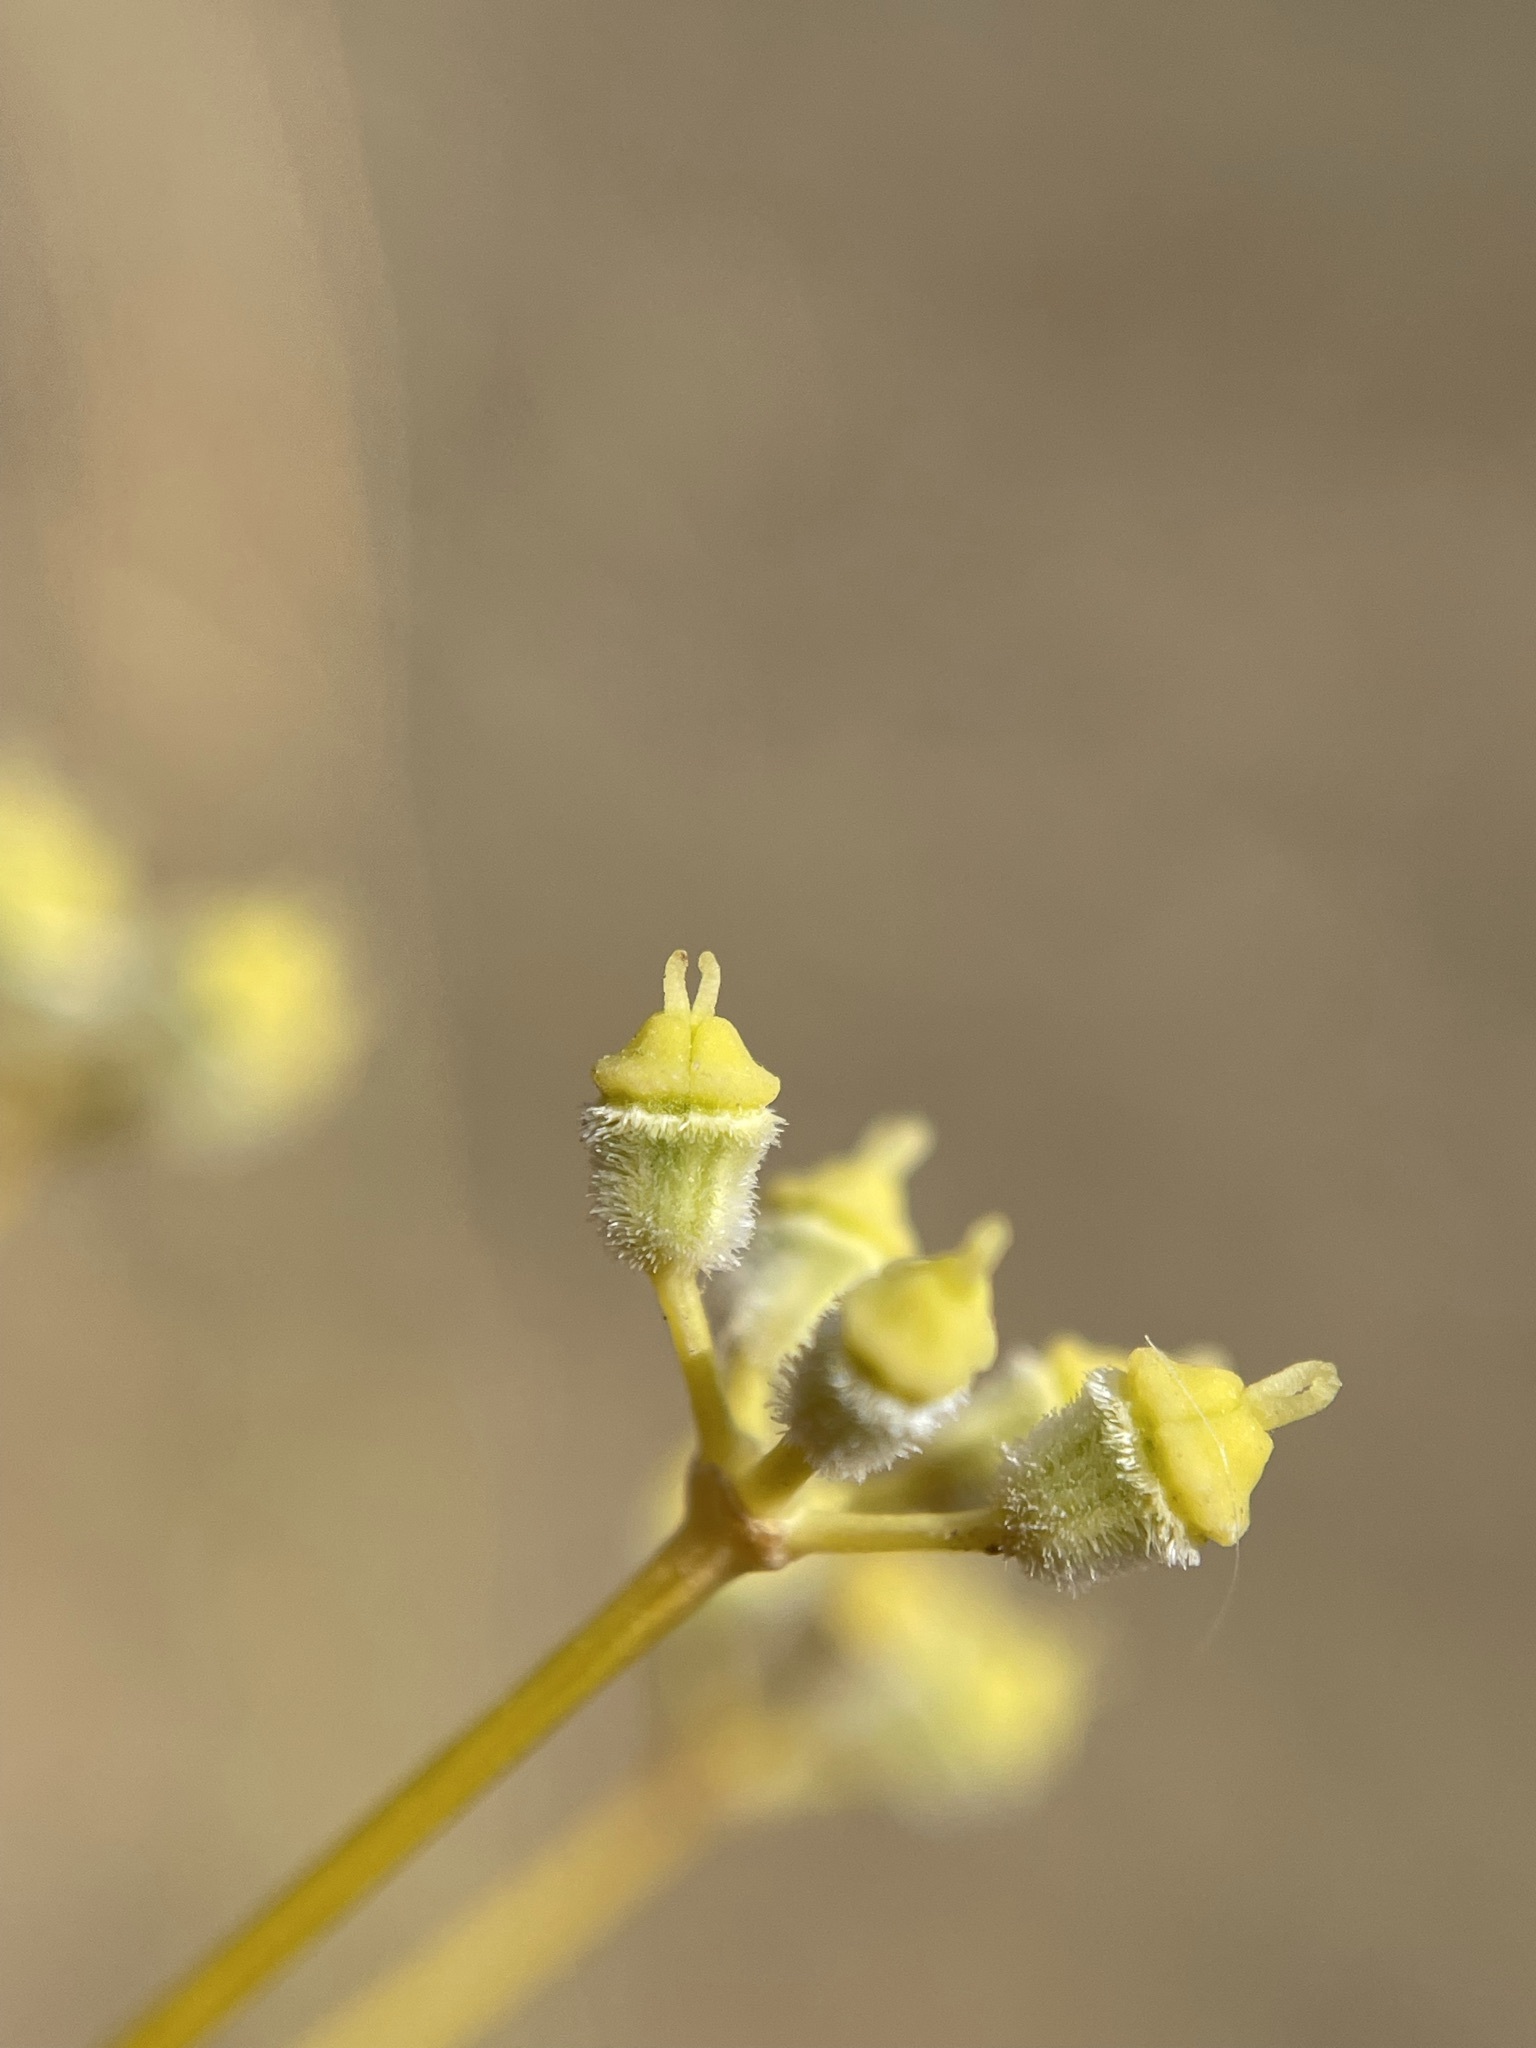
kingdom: Plantae
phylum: Tracheophyta
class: Magnoliopsida
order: Apiales
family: Apiaceae
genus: Deverra
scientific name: Deverra aphylla
